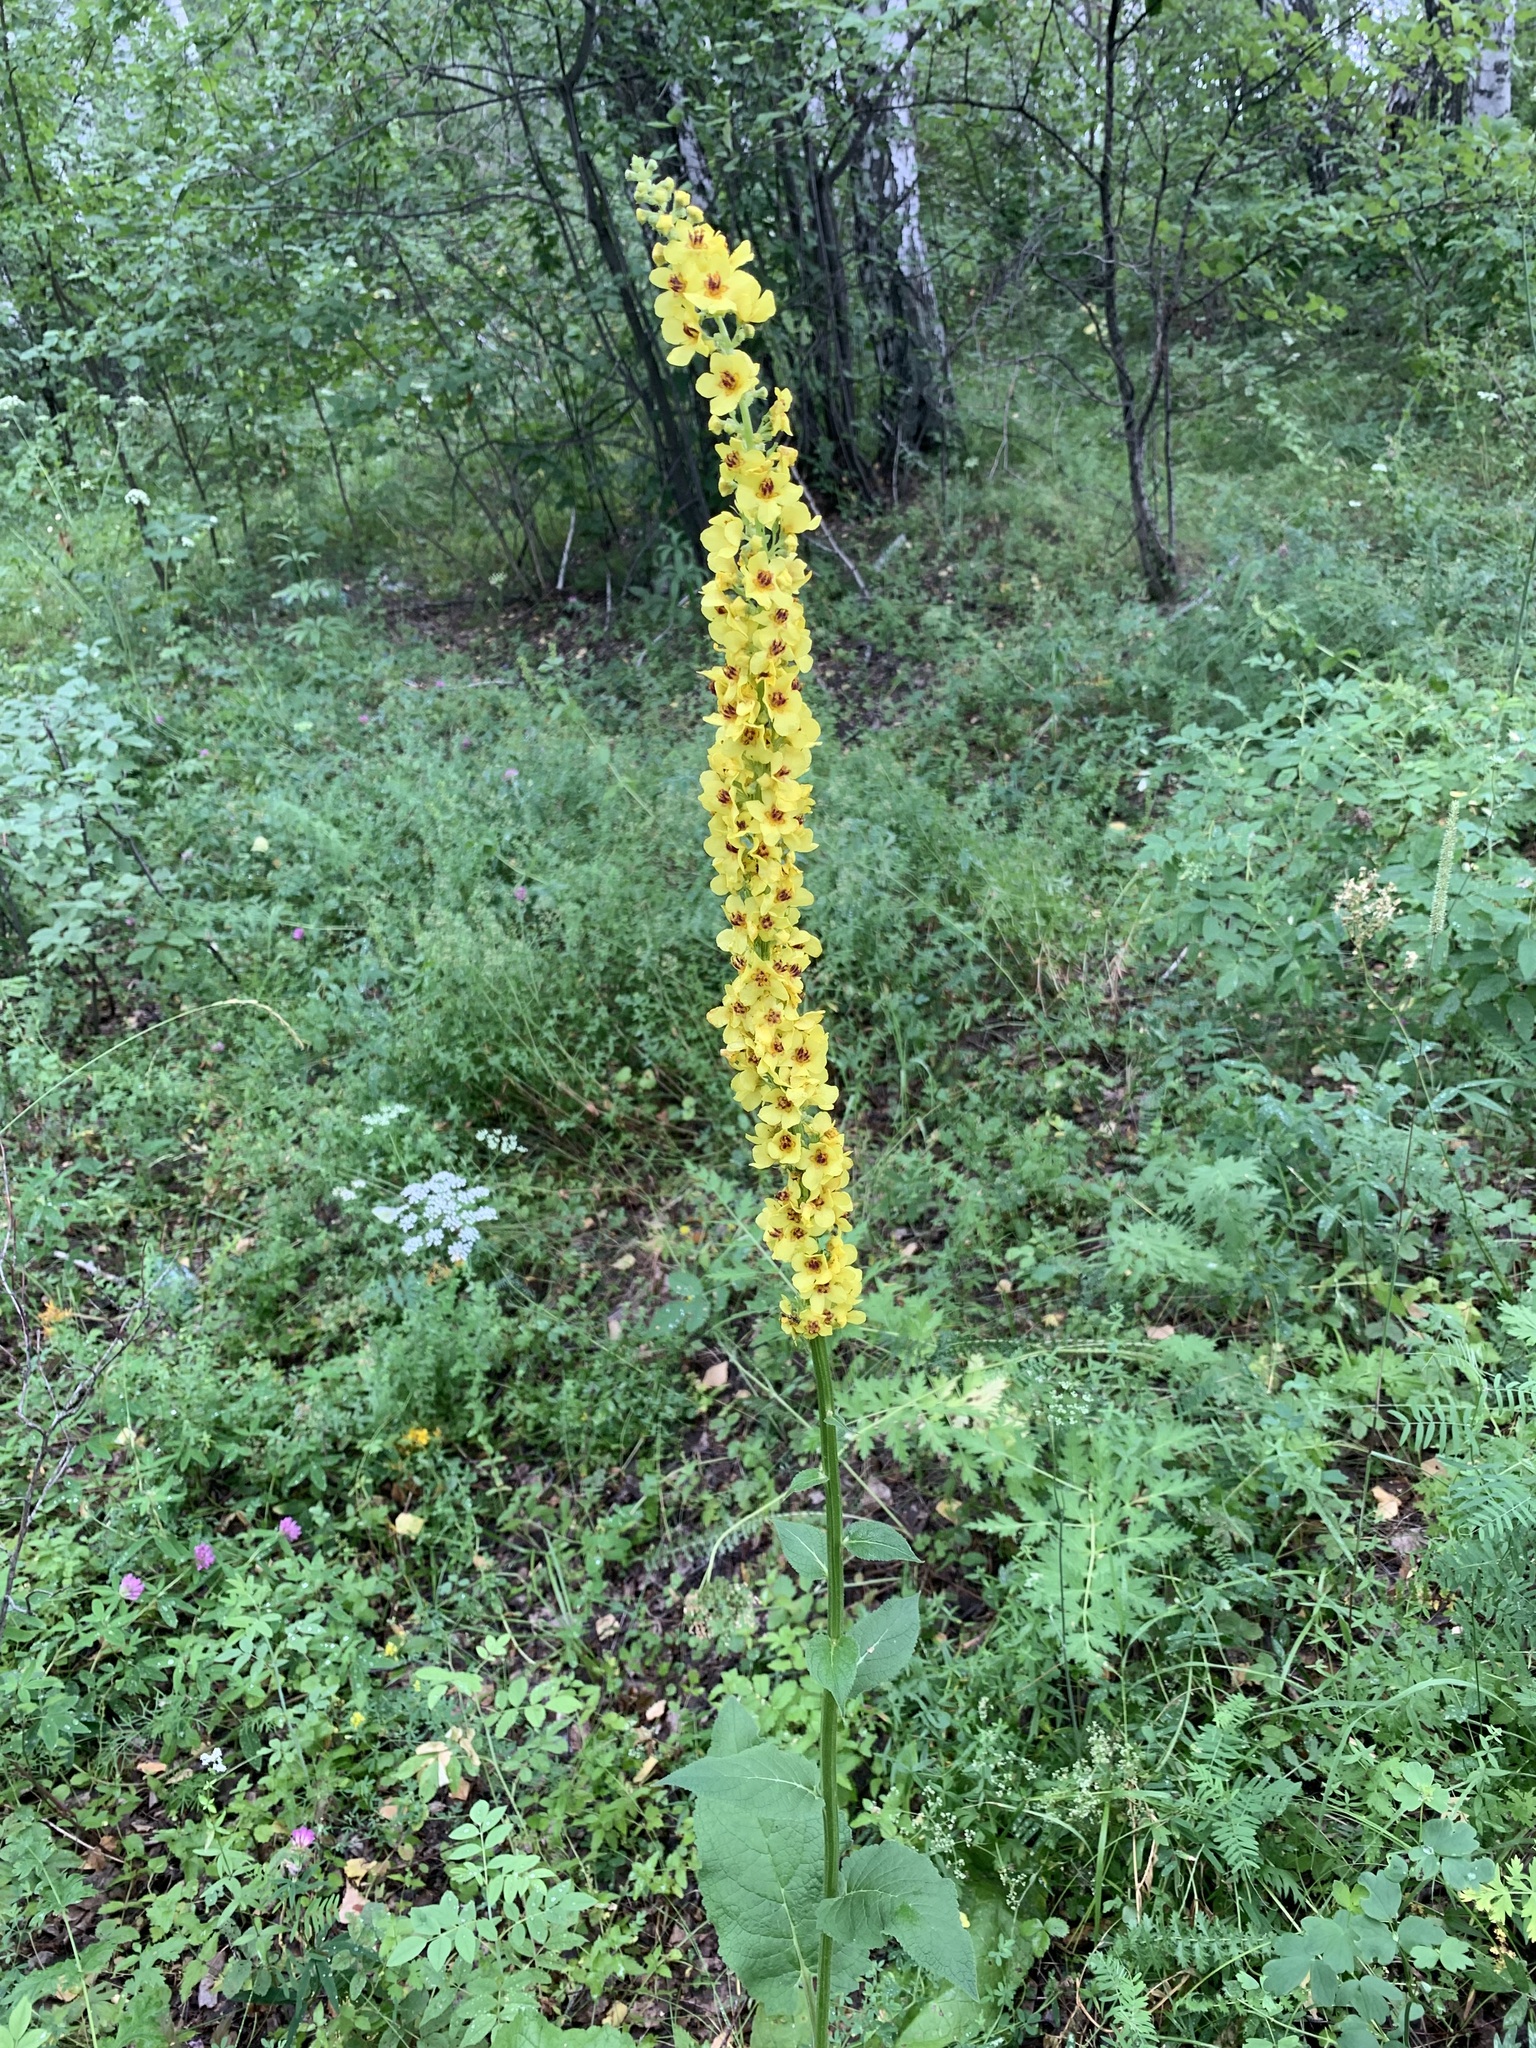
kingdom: Plantae
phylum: Tracheophyta
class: Magnoliopsida
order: Lamiales
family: Scrophulariaceae
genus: Verbascum
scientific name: Verbascum nigrum
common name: Dark mullein
